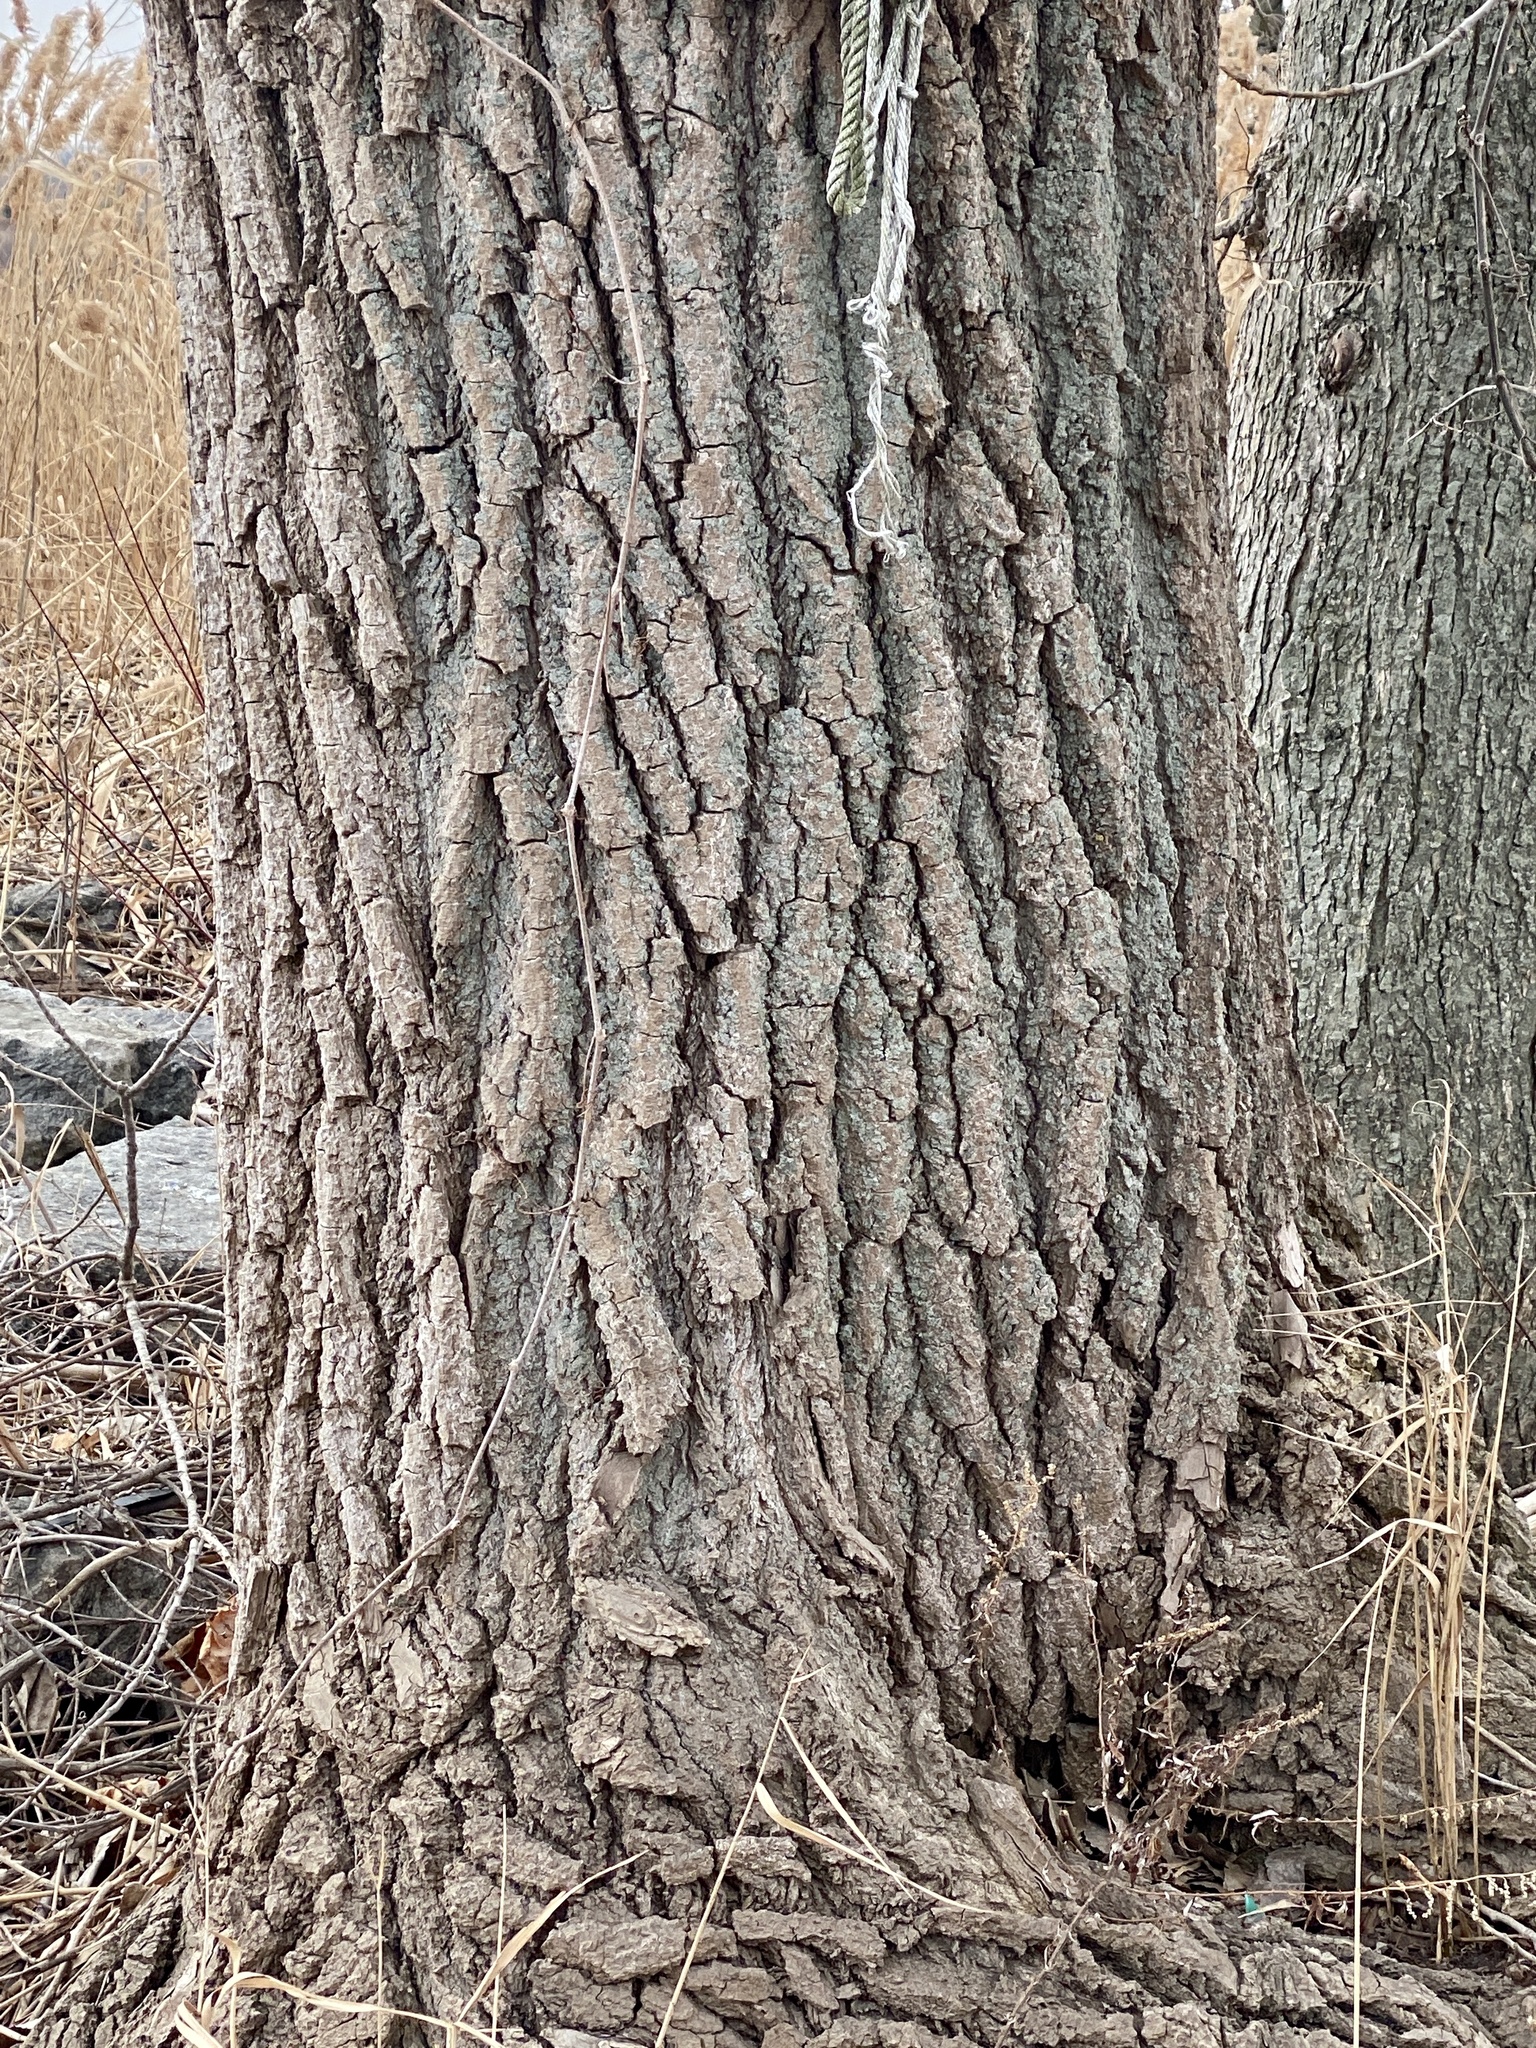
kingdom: Plantae
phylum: Tracheophyta
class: Magnoliopsida
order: Malpighiales
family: Salicaceae
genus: Populus
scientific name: Populus deltoides
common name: Eastern cottonwood
